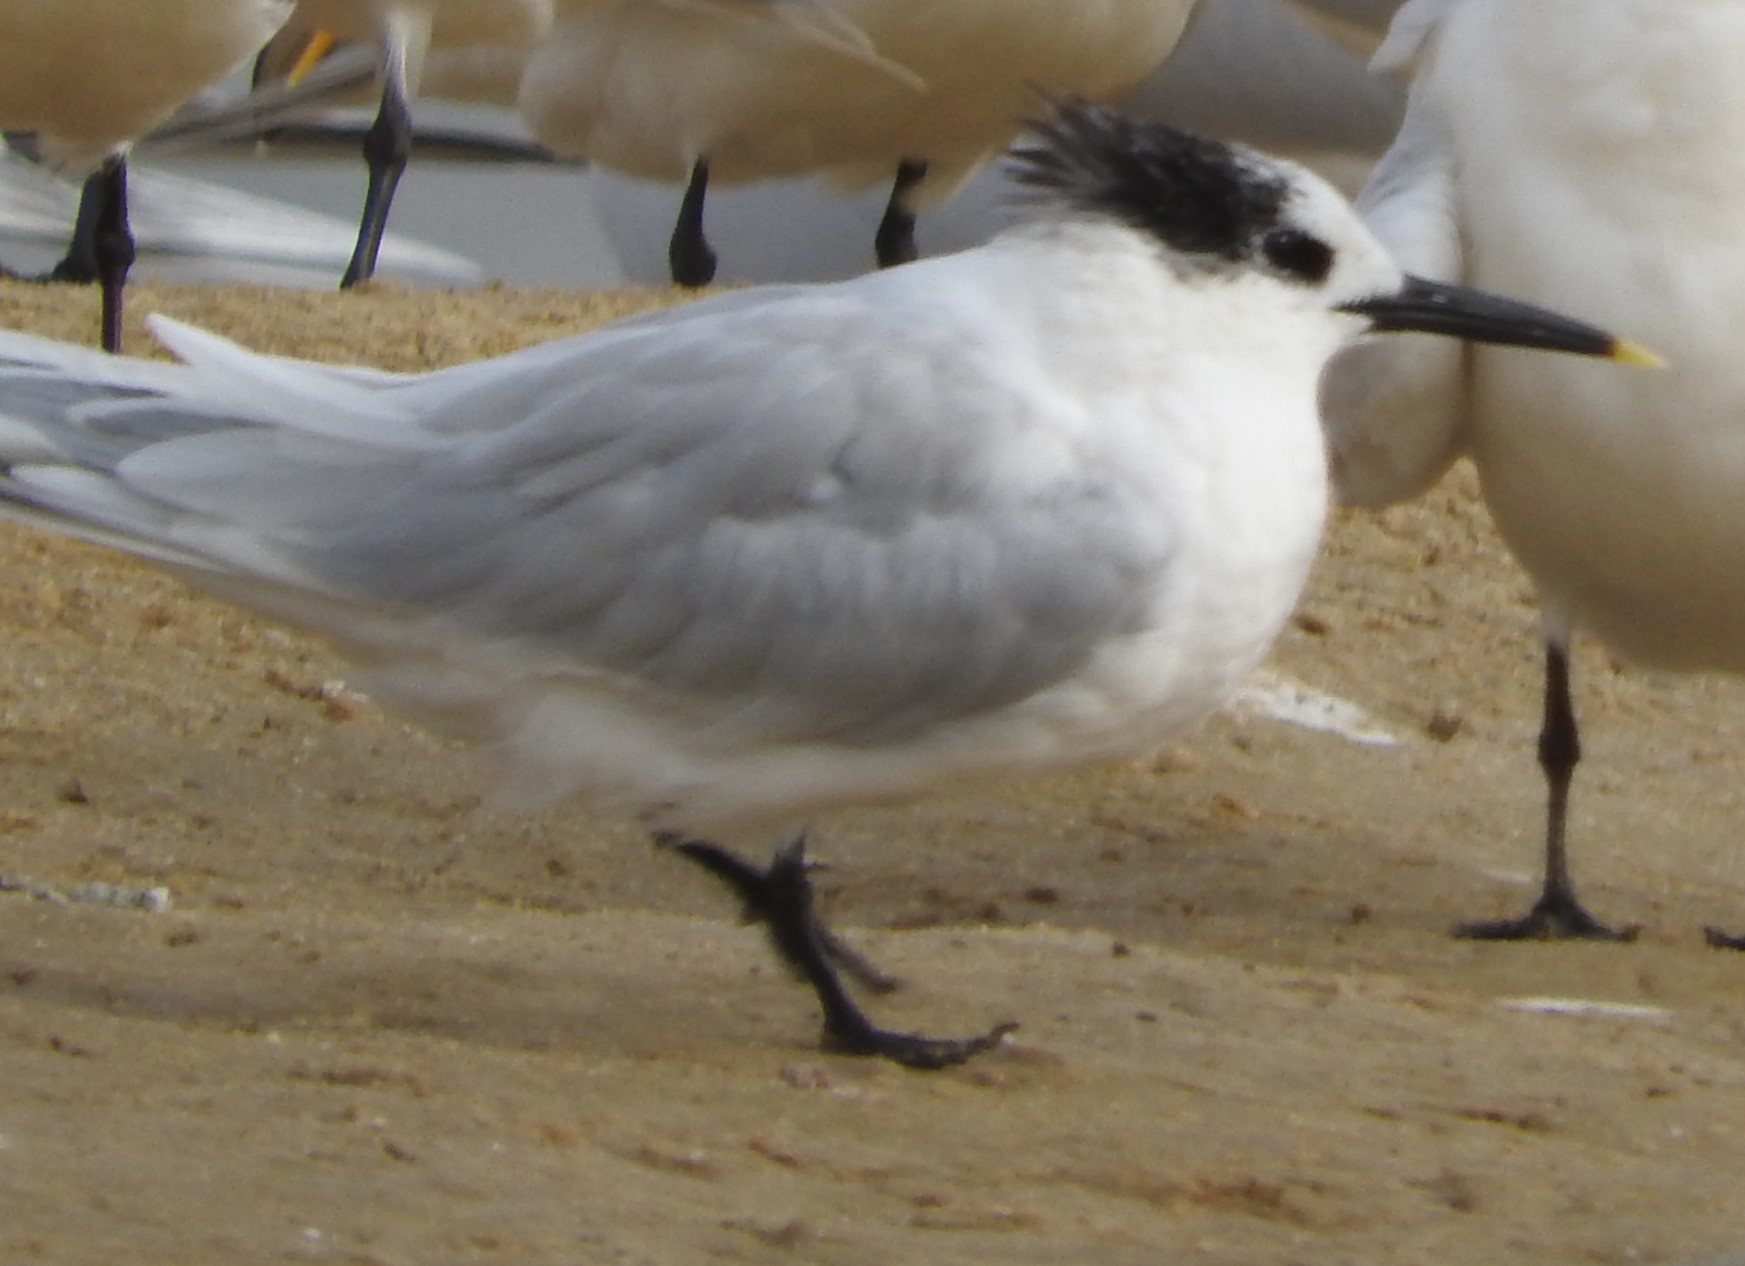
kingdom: Animalia
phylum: Chordata
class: Aves
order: Charadriiformes
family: Laridae
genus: Thalasseus
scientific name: Thalasseus sandvicensis
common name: Sandwich tern
